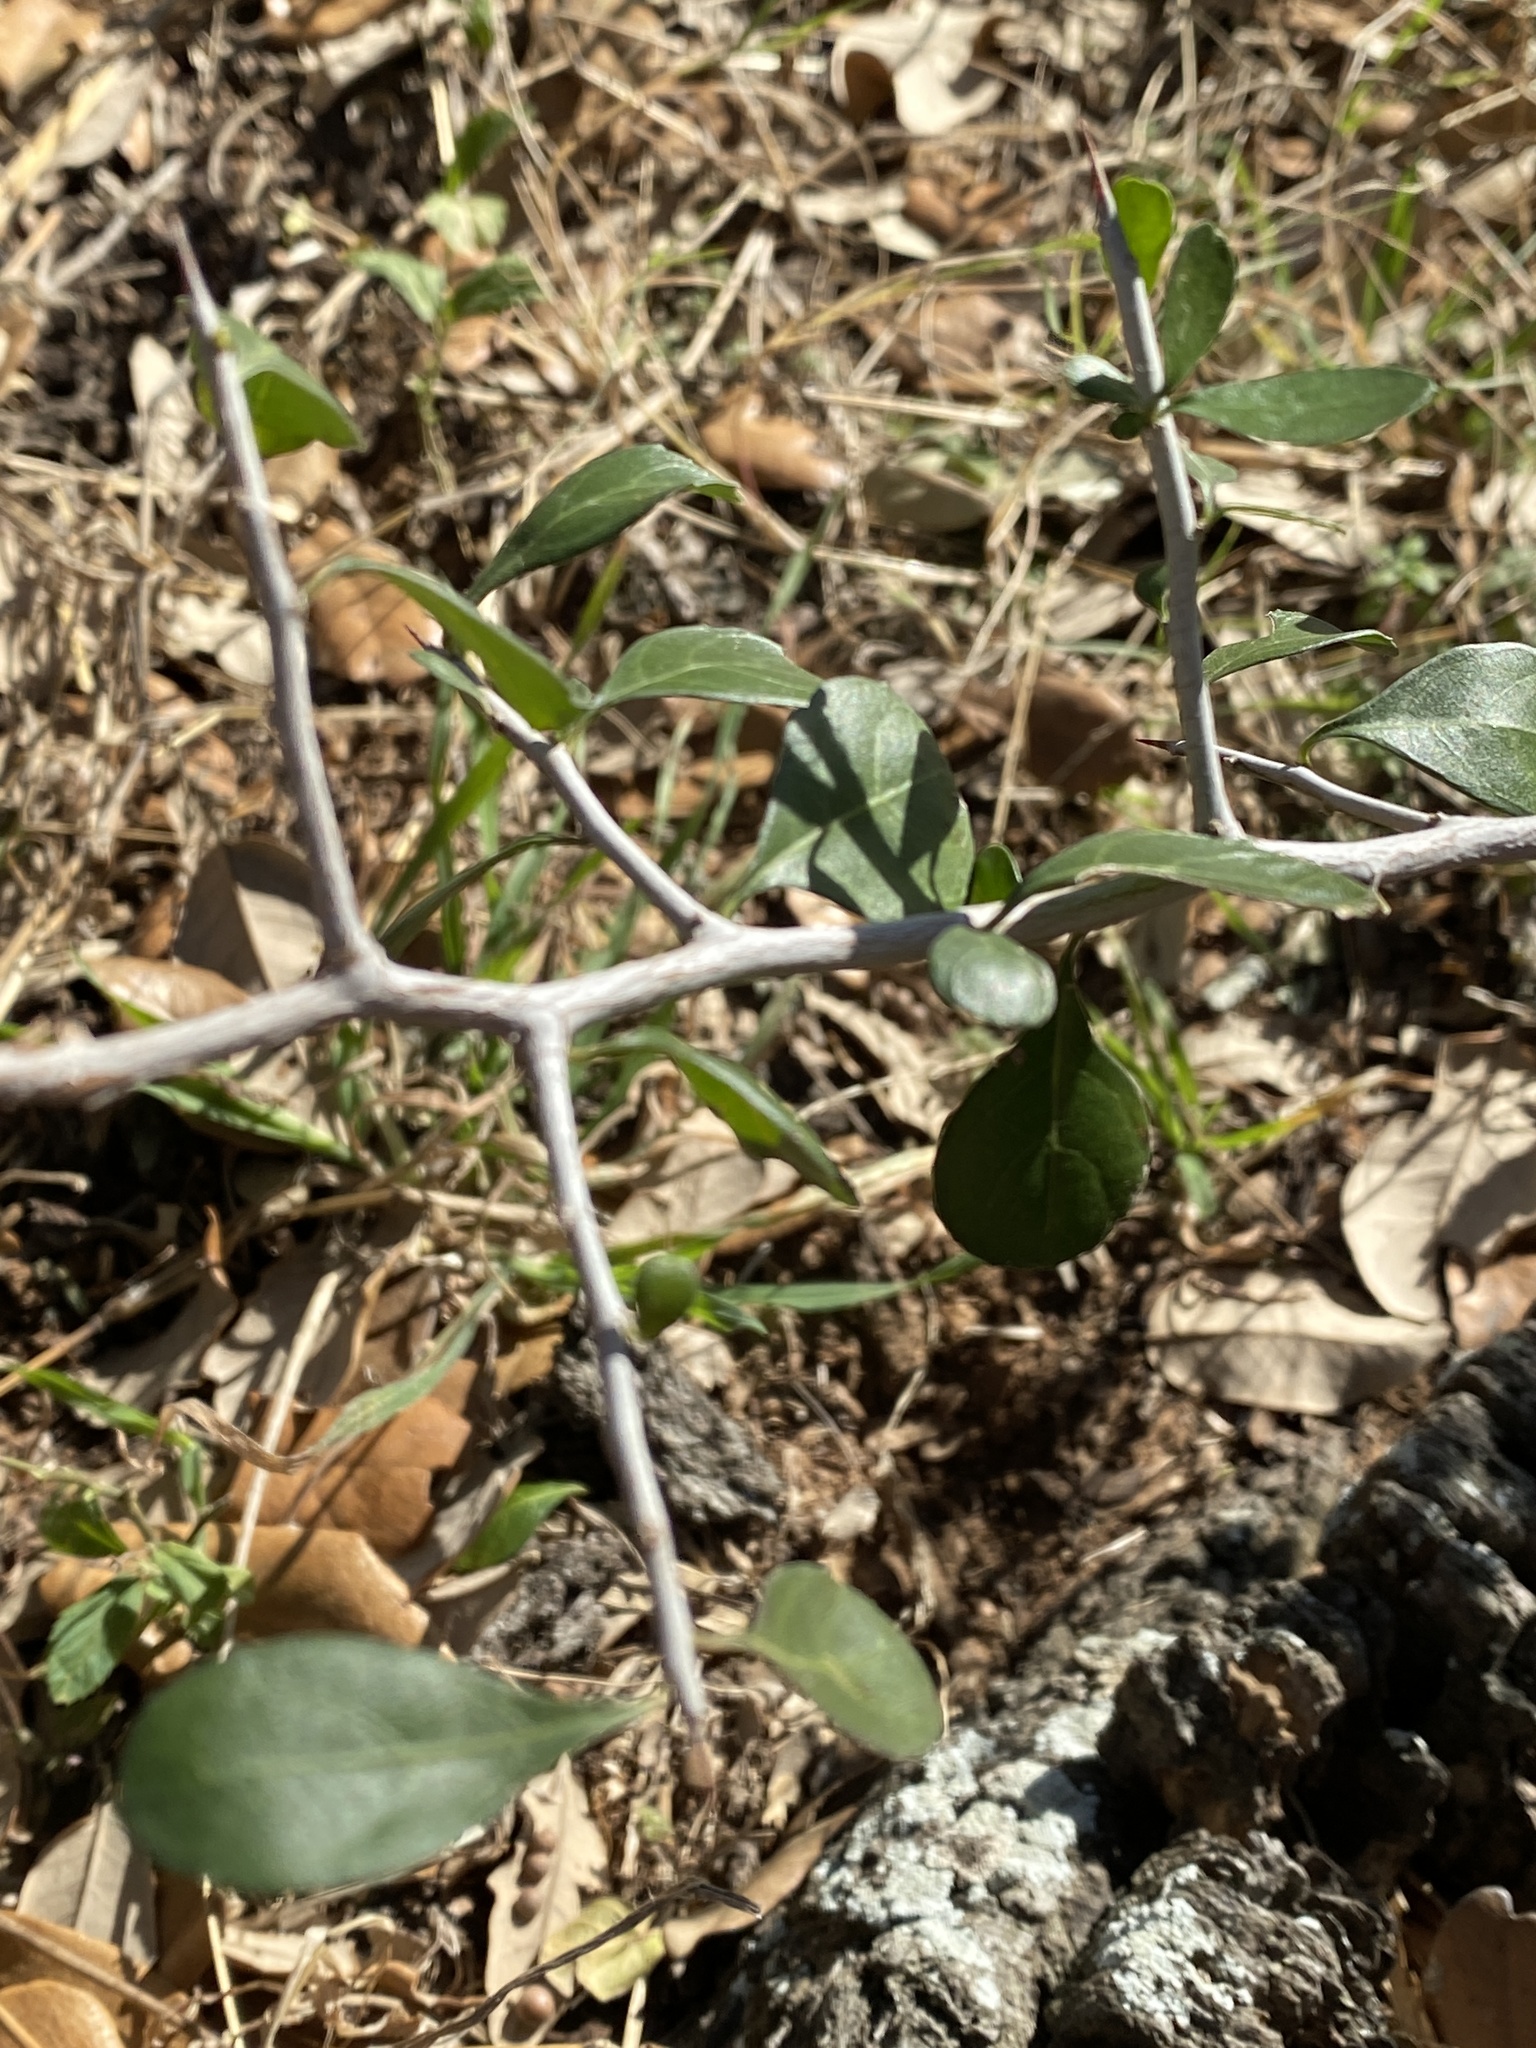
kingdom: Plantae
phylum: Tracheophyta
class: Magnoliopsida
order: Rosales
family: Rhamnaceae
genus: Condalia
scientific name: Condalia hookeri
